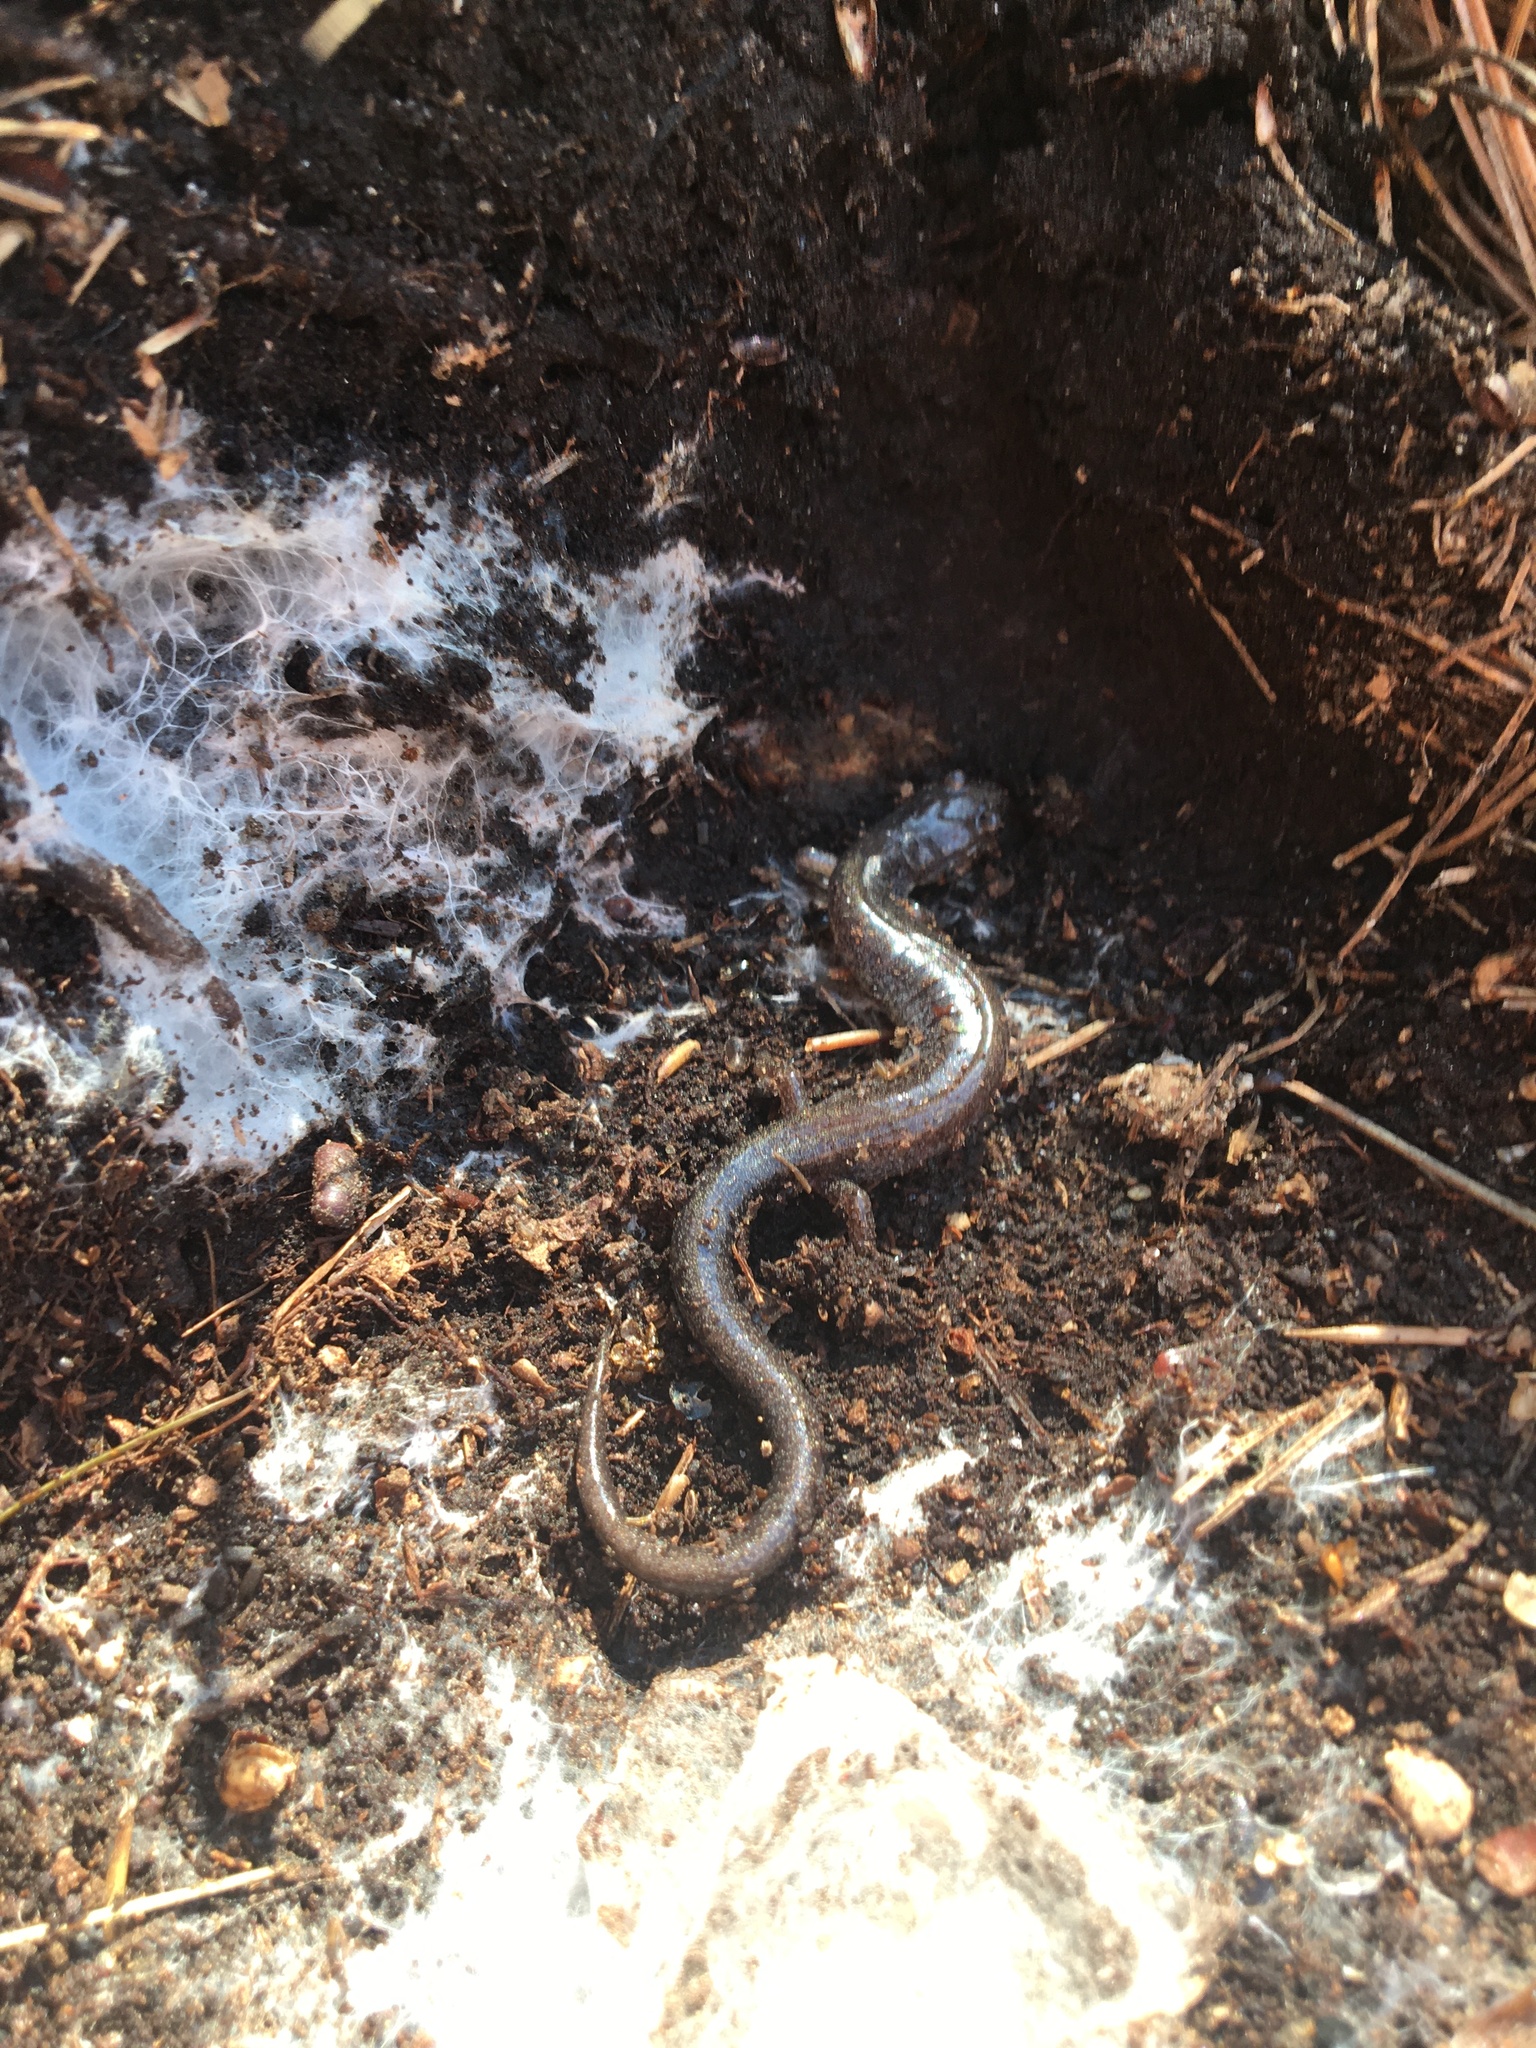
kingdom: Animalia
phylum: Chordata
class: Amphibia
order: Caudata
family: Plethodontidae
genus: Plethodon
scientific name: Plethodon cinereus
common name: Redback salamander
